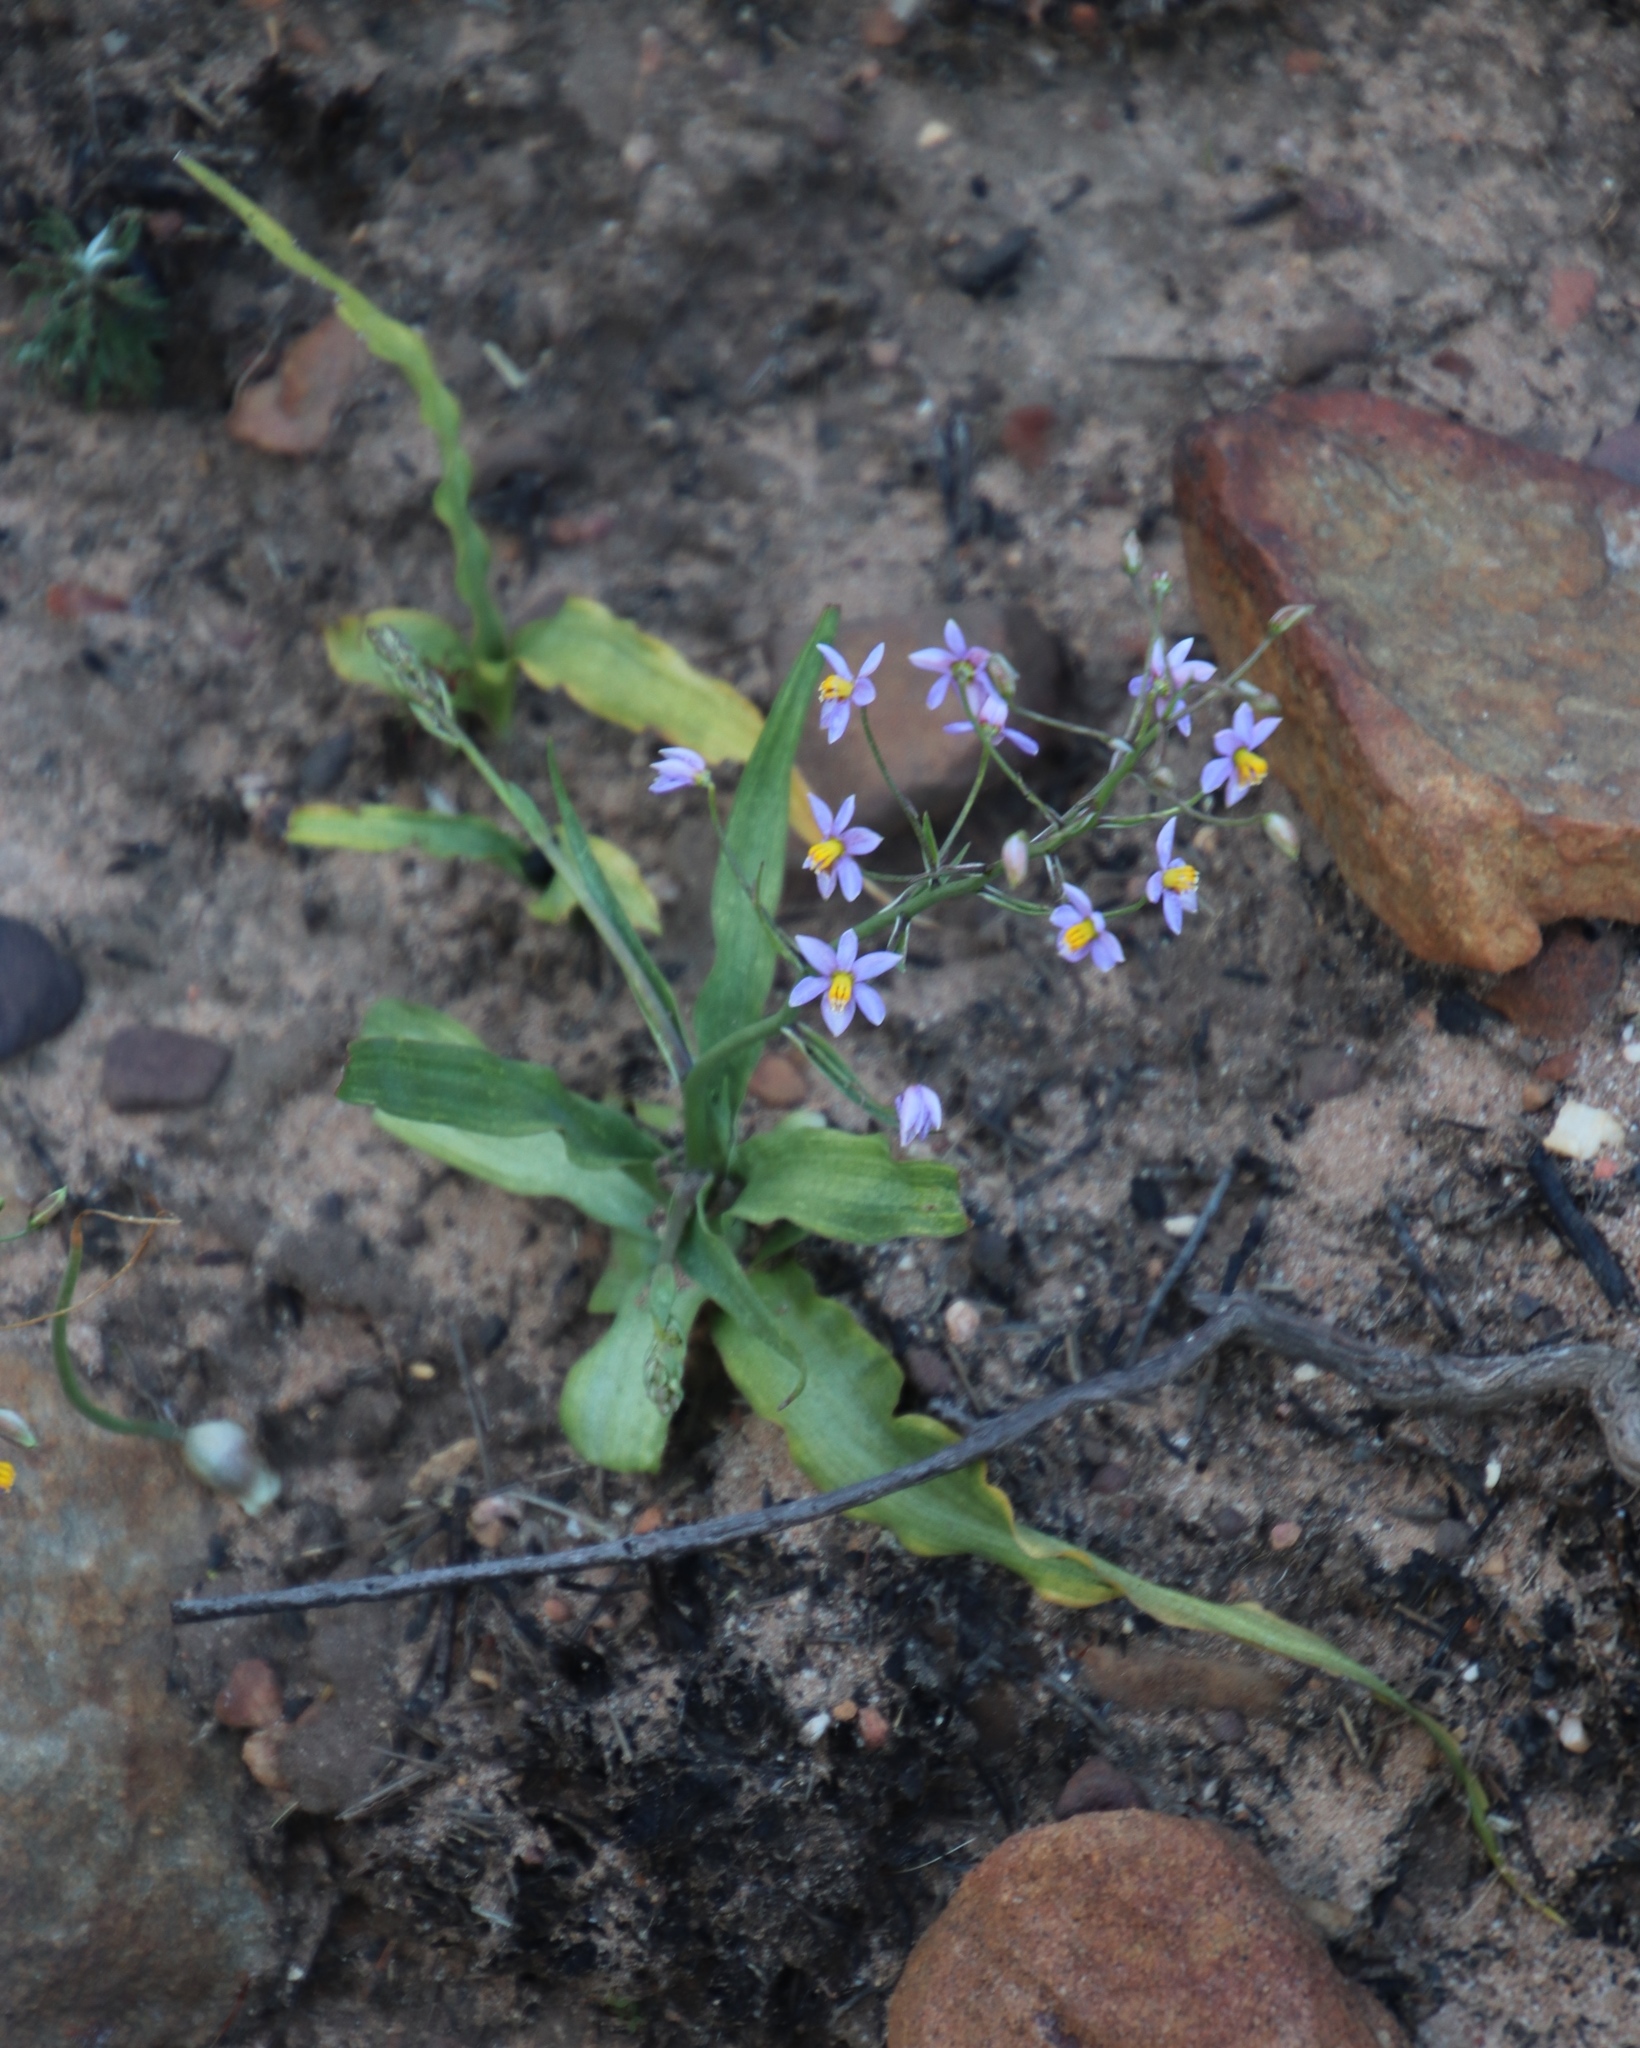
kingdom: Plantae
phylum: Tracheophyta
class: Liliopsida
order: Asparagales
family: Tecophilaeaceae
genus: Cyanella
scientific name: Cyanella hyacinthoides
